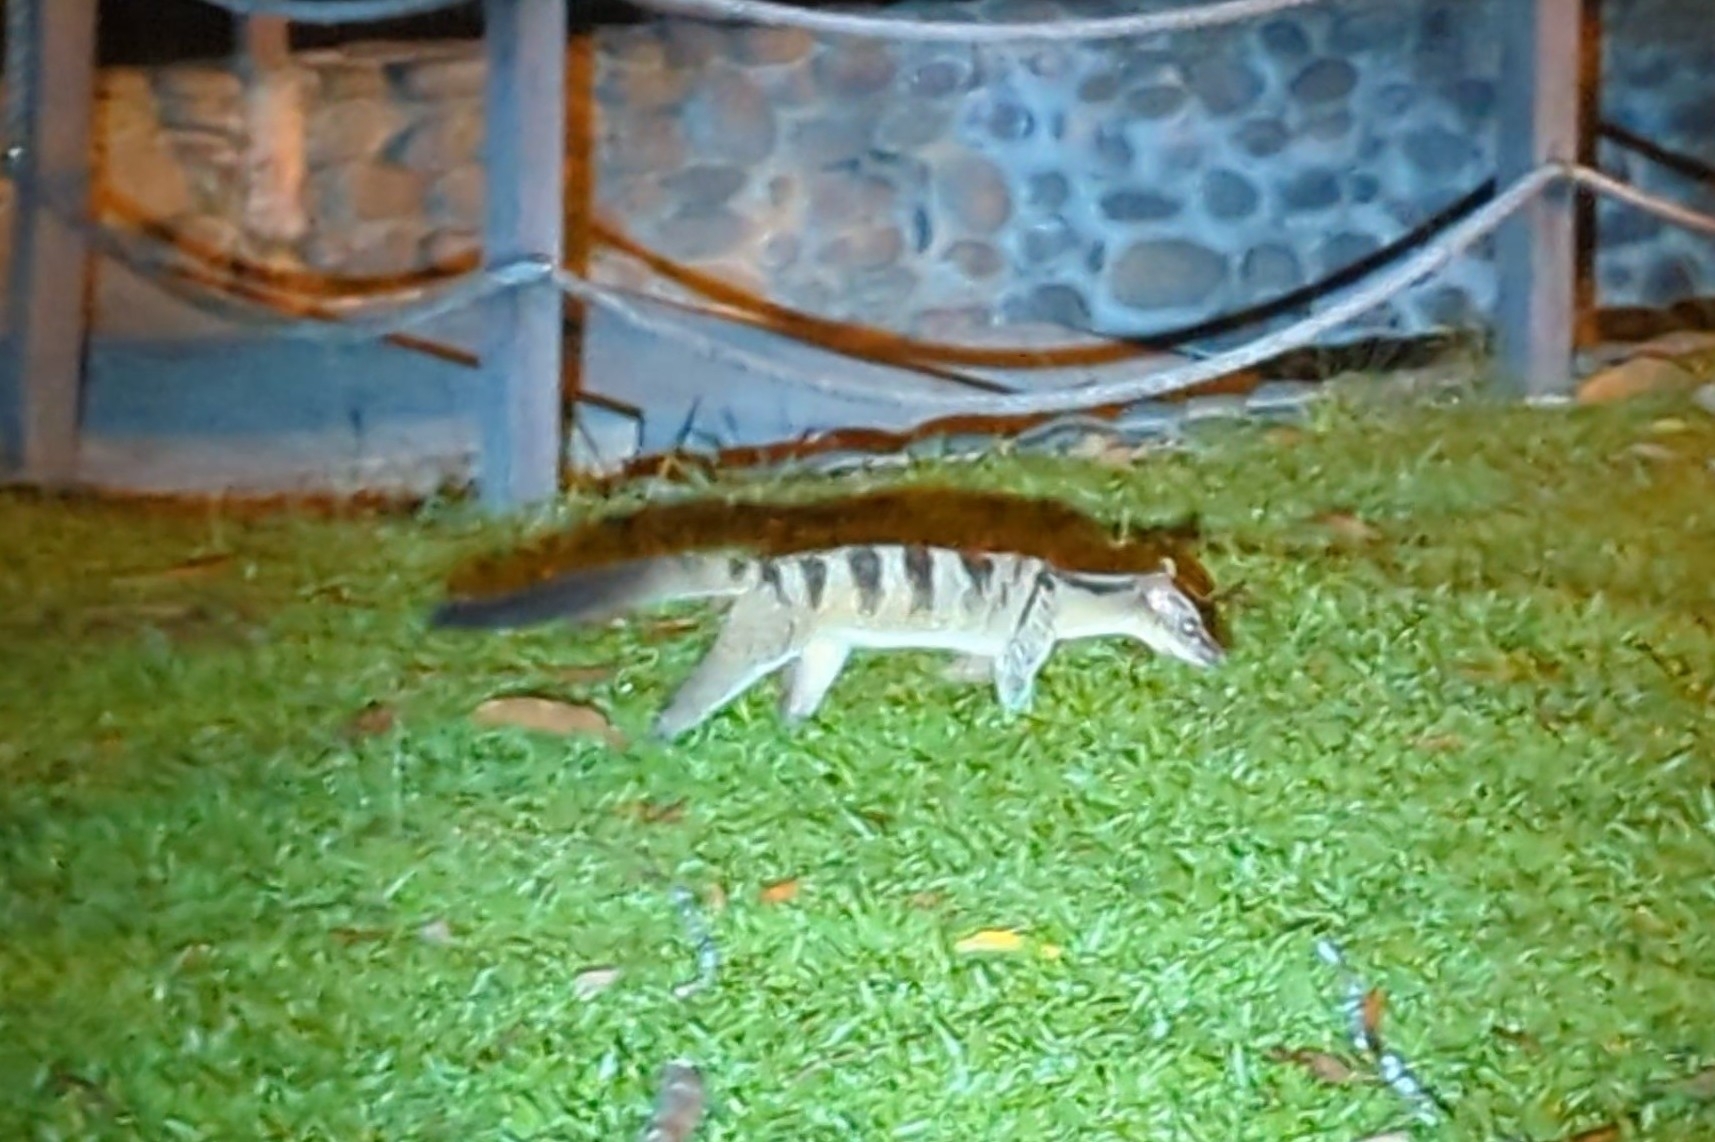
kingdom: Animalia
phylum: Chordata
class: Mammalia
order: Carnivora
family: Viverridae
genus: Hemigalus
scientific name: Hemigalus derbyanus
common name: Banded palm civet
